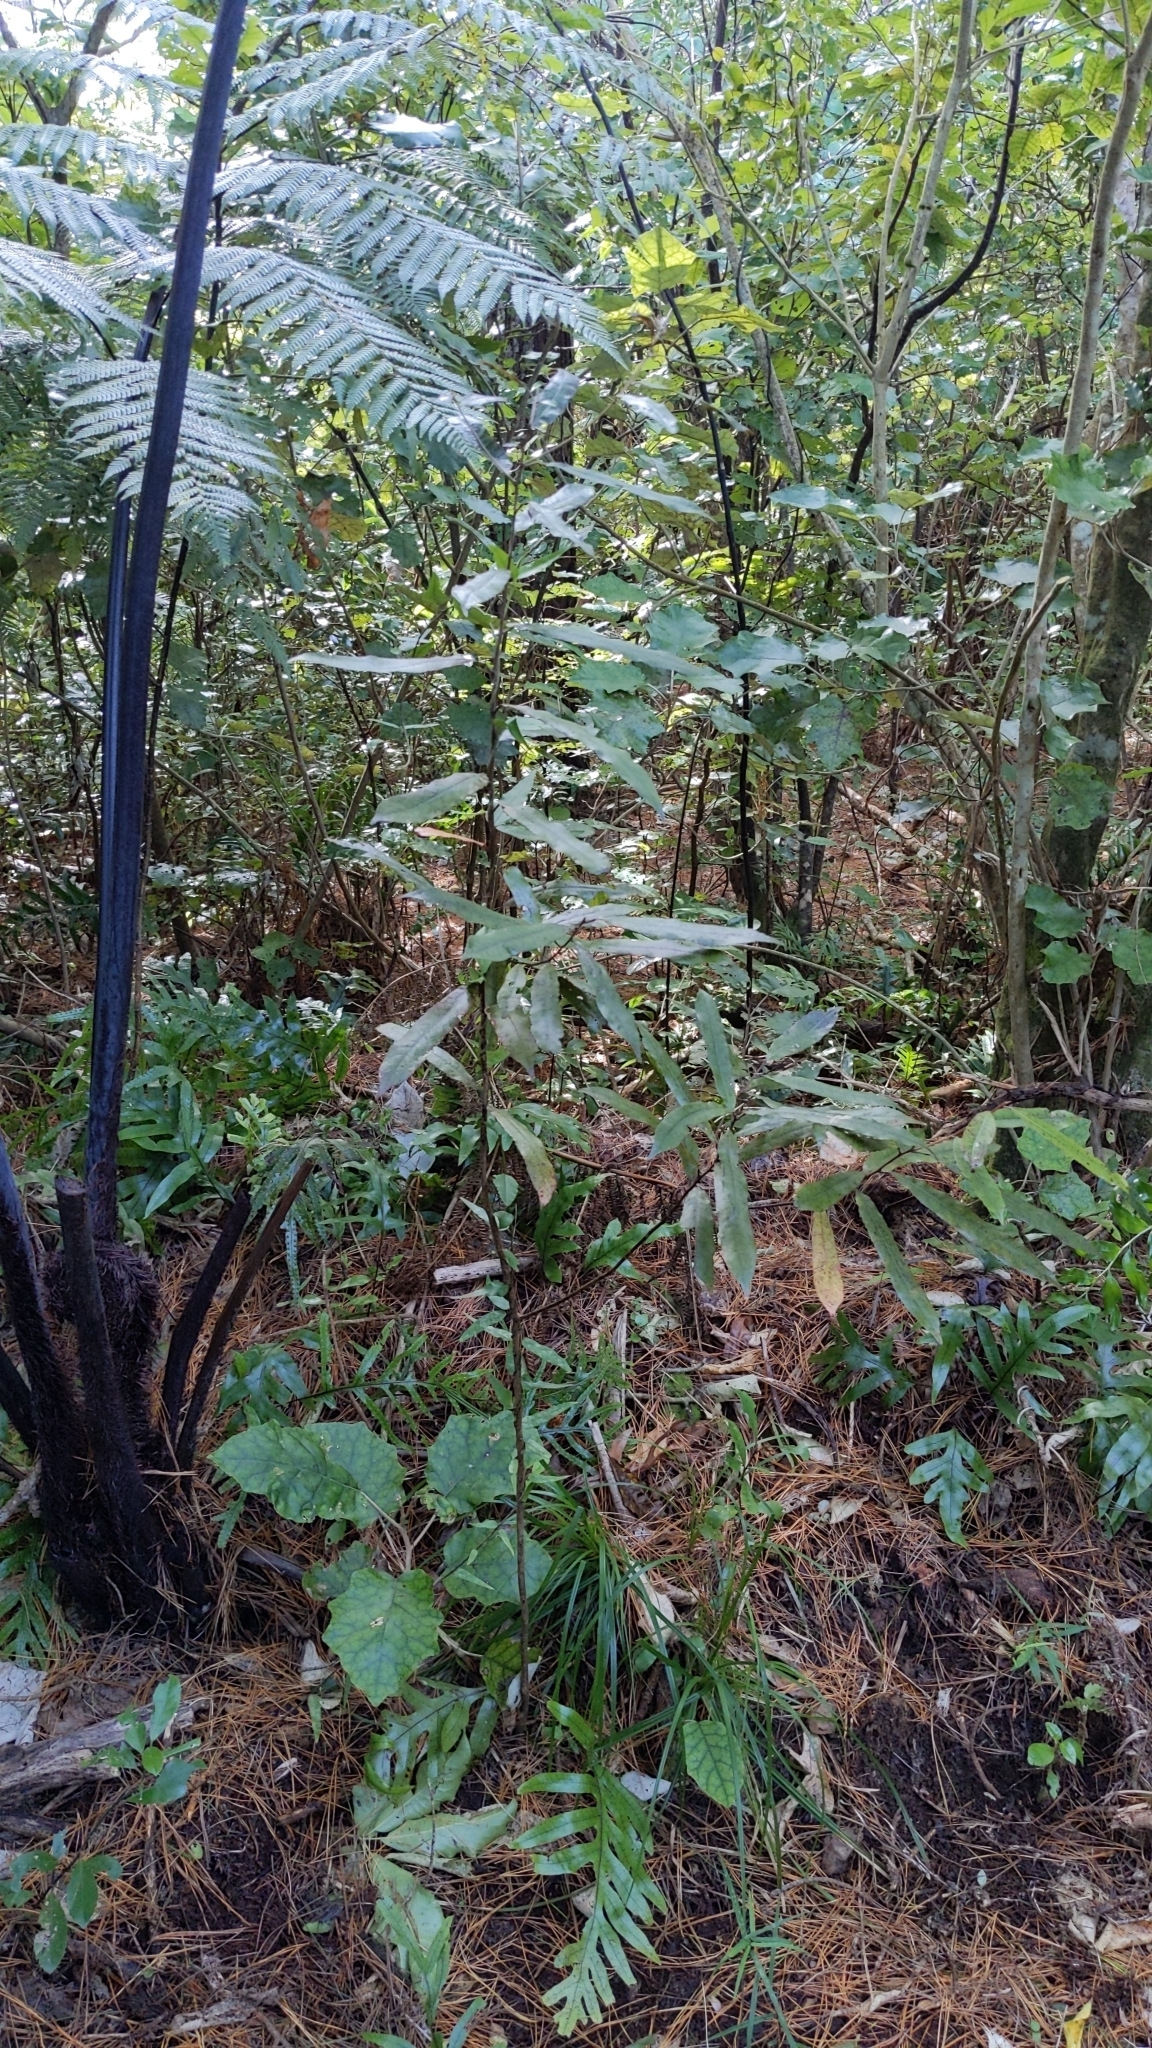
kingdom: Plantae
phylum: Tracheophyta
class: Magnoliopsida
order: Oxalidales
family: Elaeocarpaceae
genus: Elaeocarpus
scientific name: Elaeocarpus dentatus
